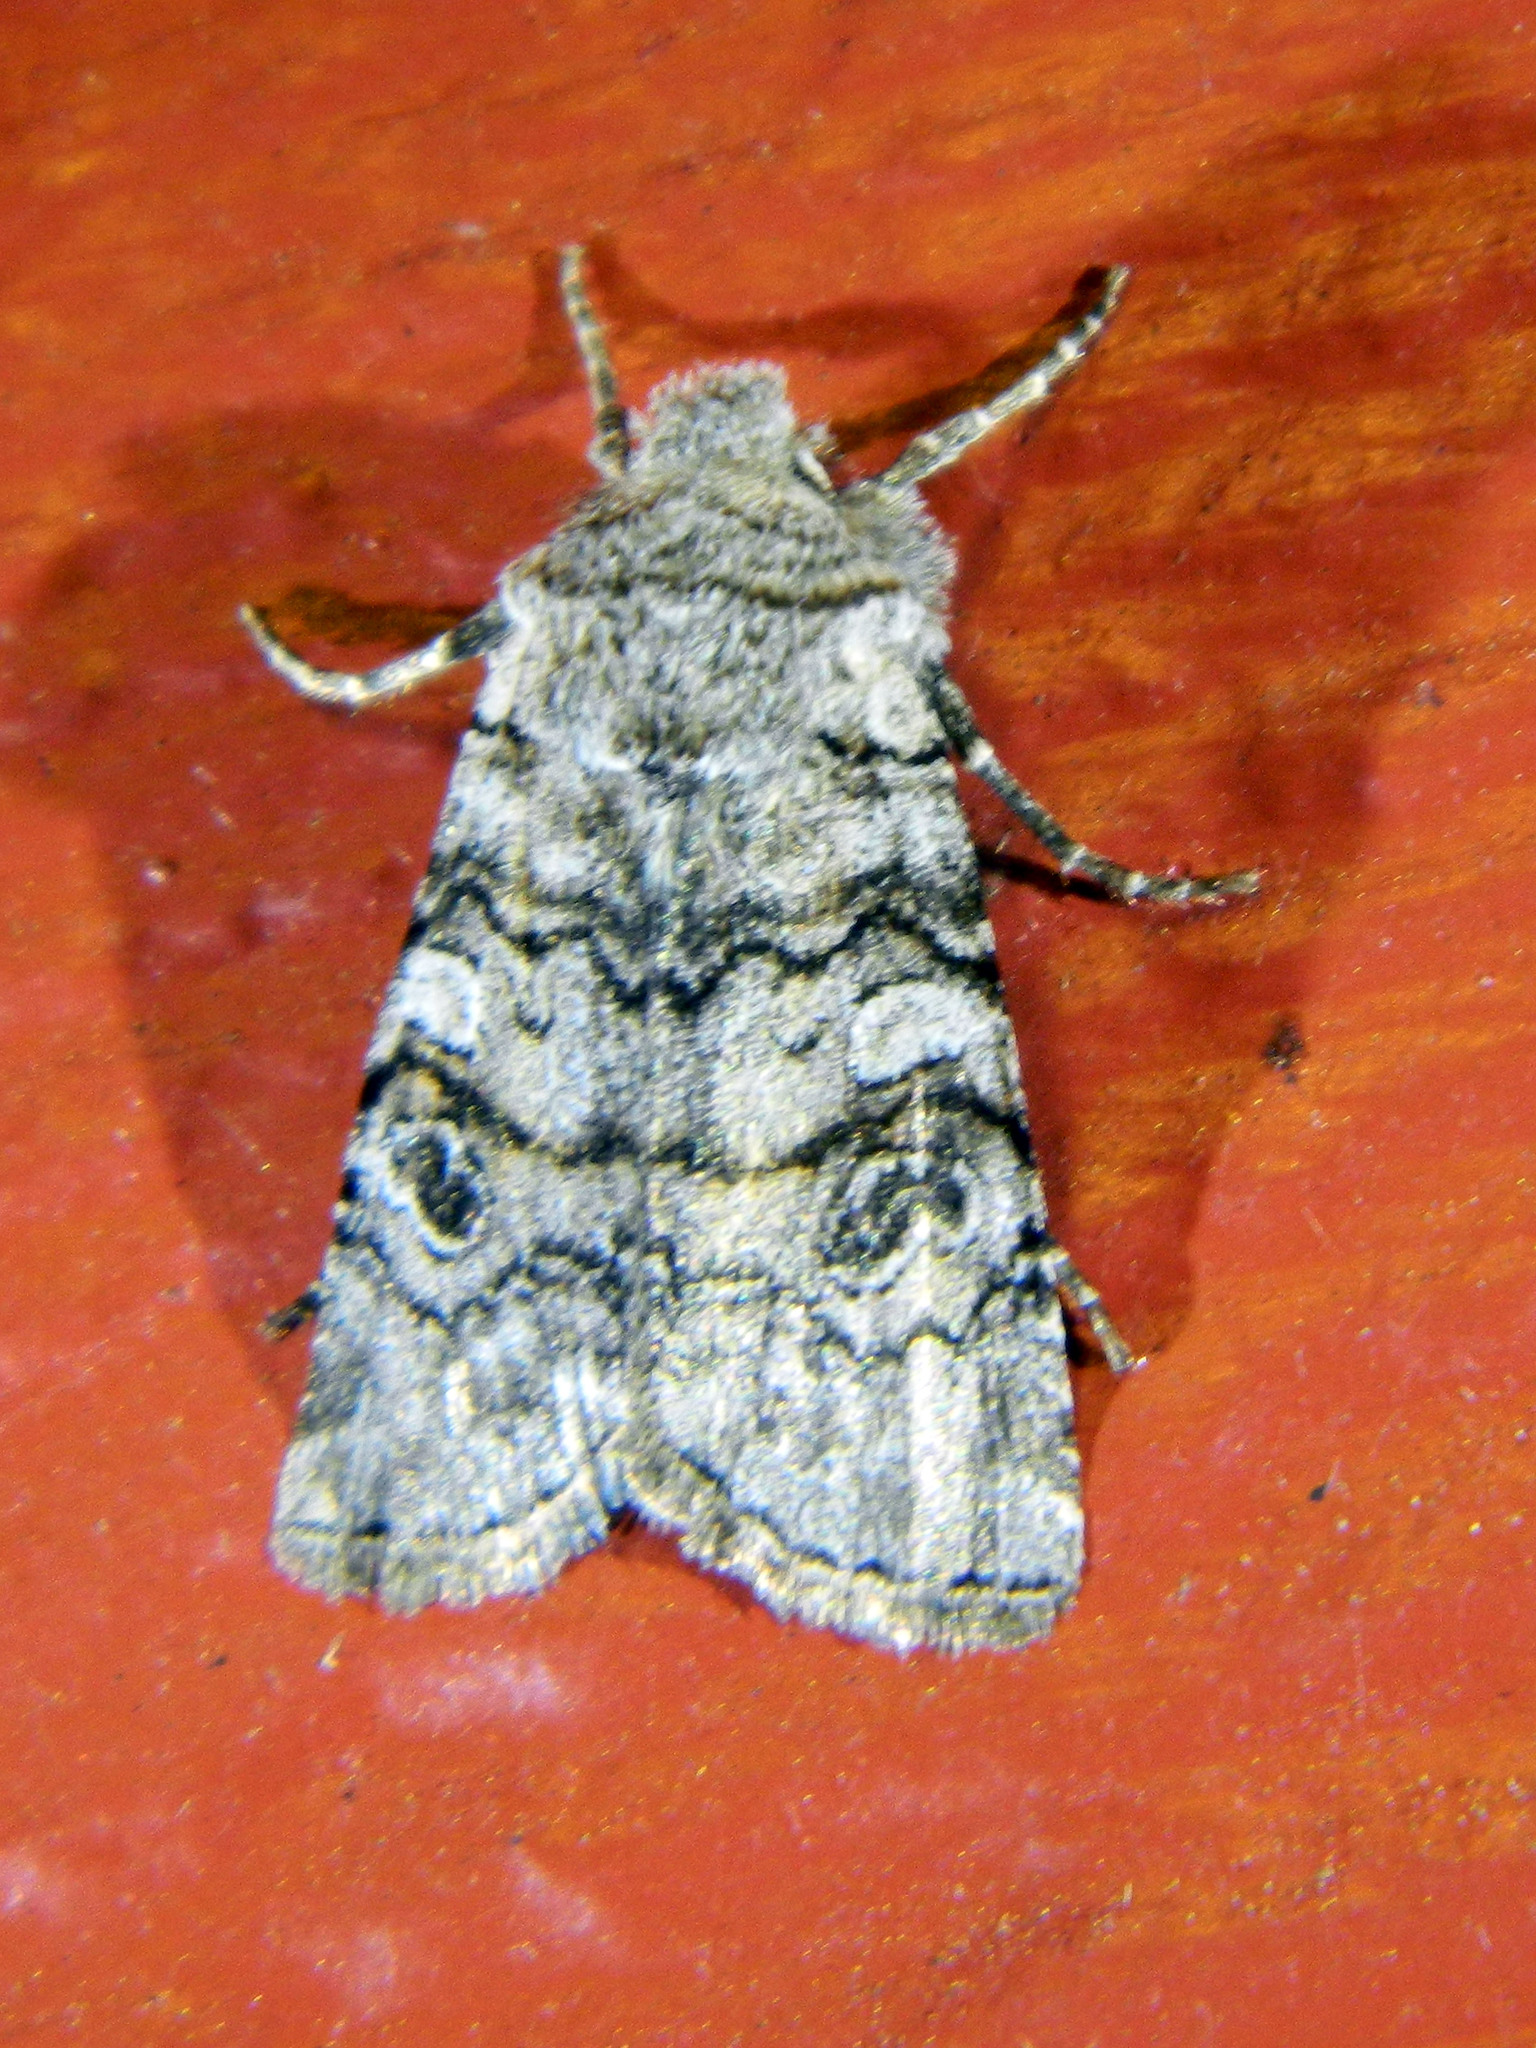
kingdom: Animalia
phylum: Arthropoda
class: Insecta
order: Lepidoptera
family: Noctuidae
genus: Litholomia
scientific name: Litholomia napaea
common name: False pinion moth
